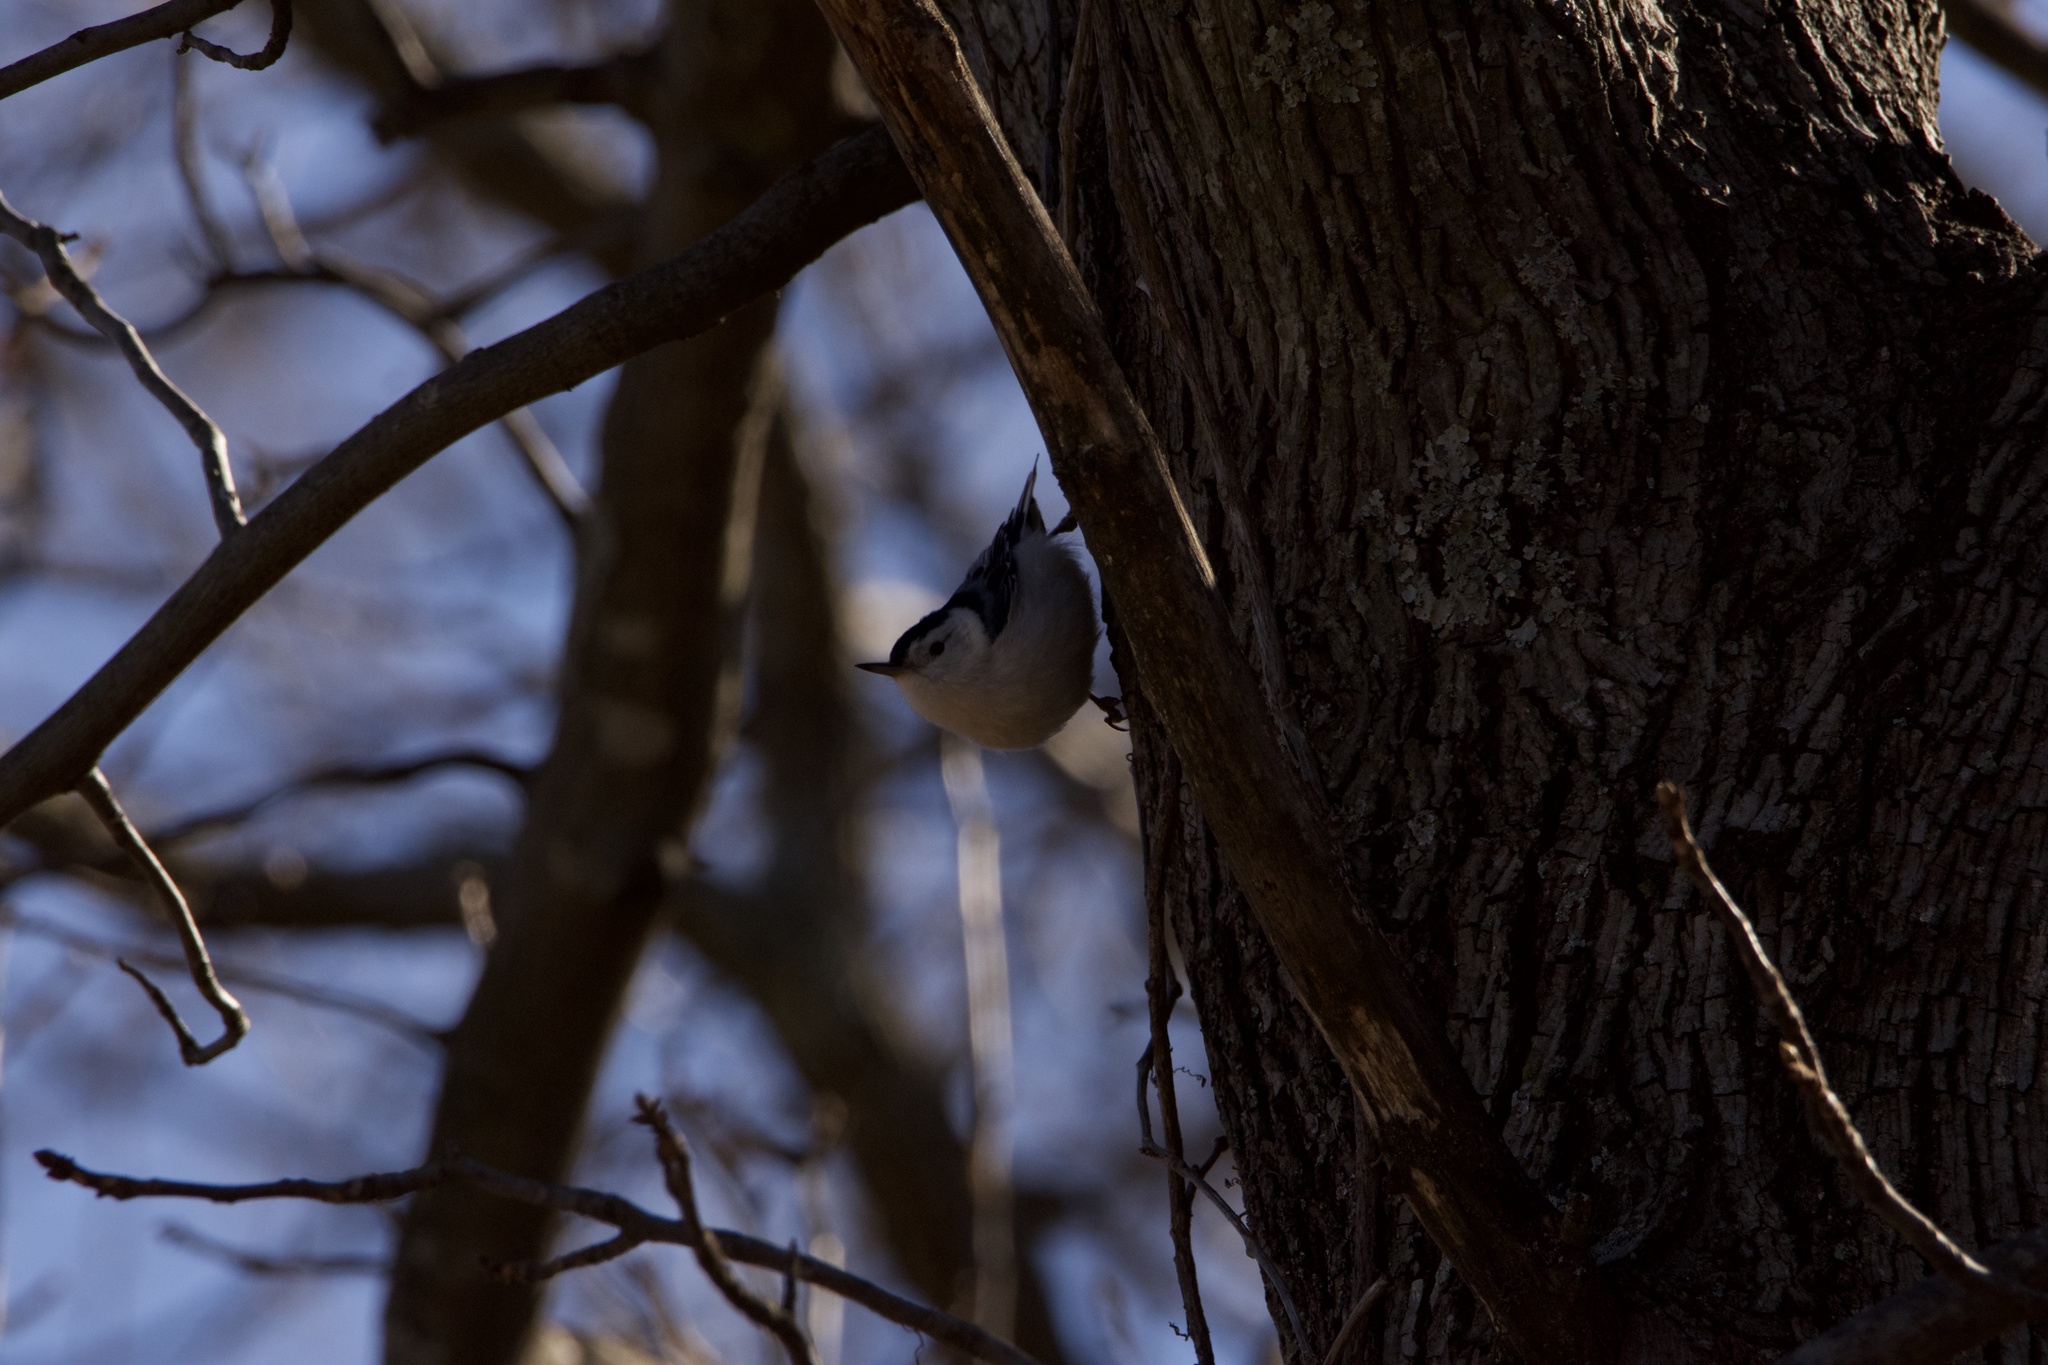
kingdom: Animalia
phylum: Chordata
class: Aves
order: Passeriformes
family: Sittidae
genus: Sitta
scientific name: Sitta carolinensis
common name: White-breasted nuthatch
